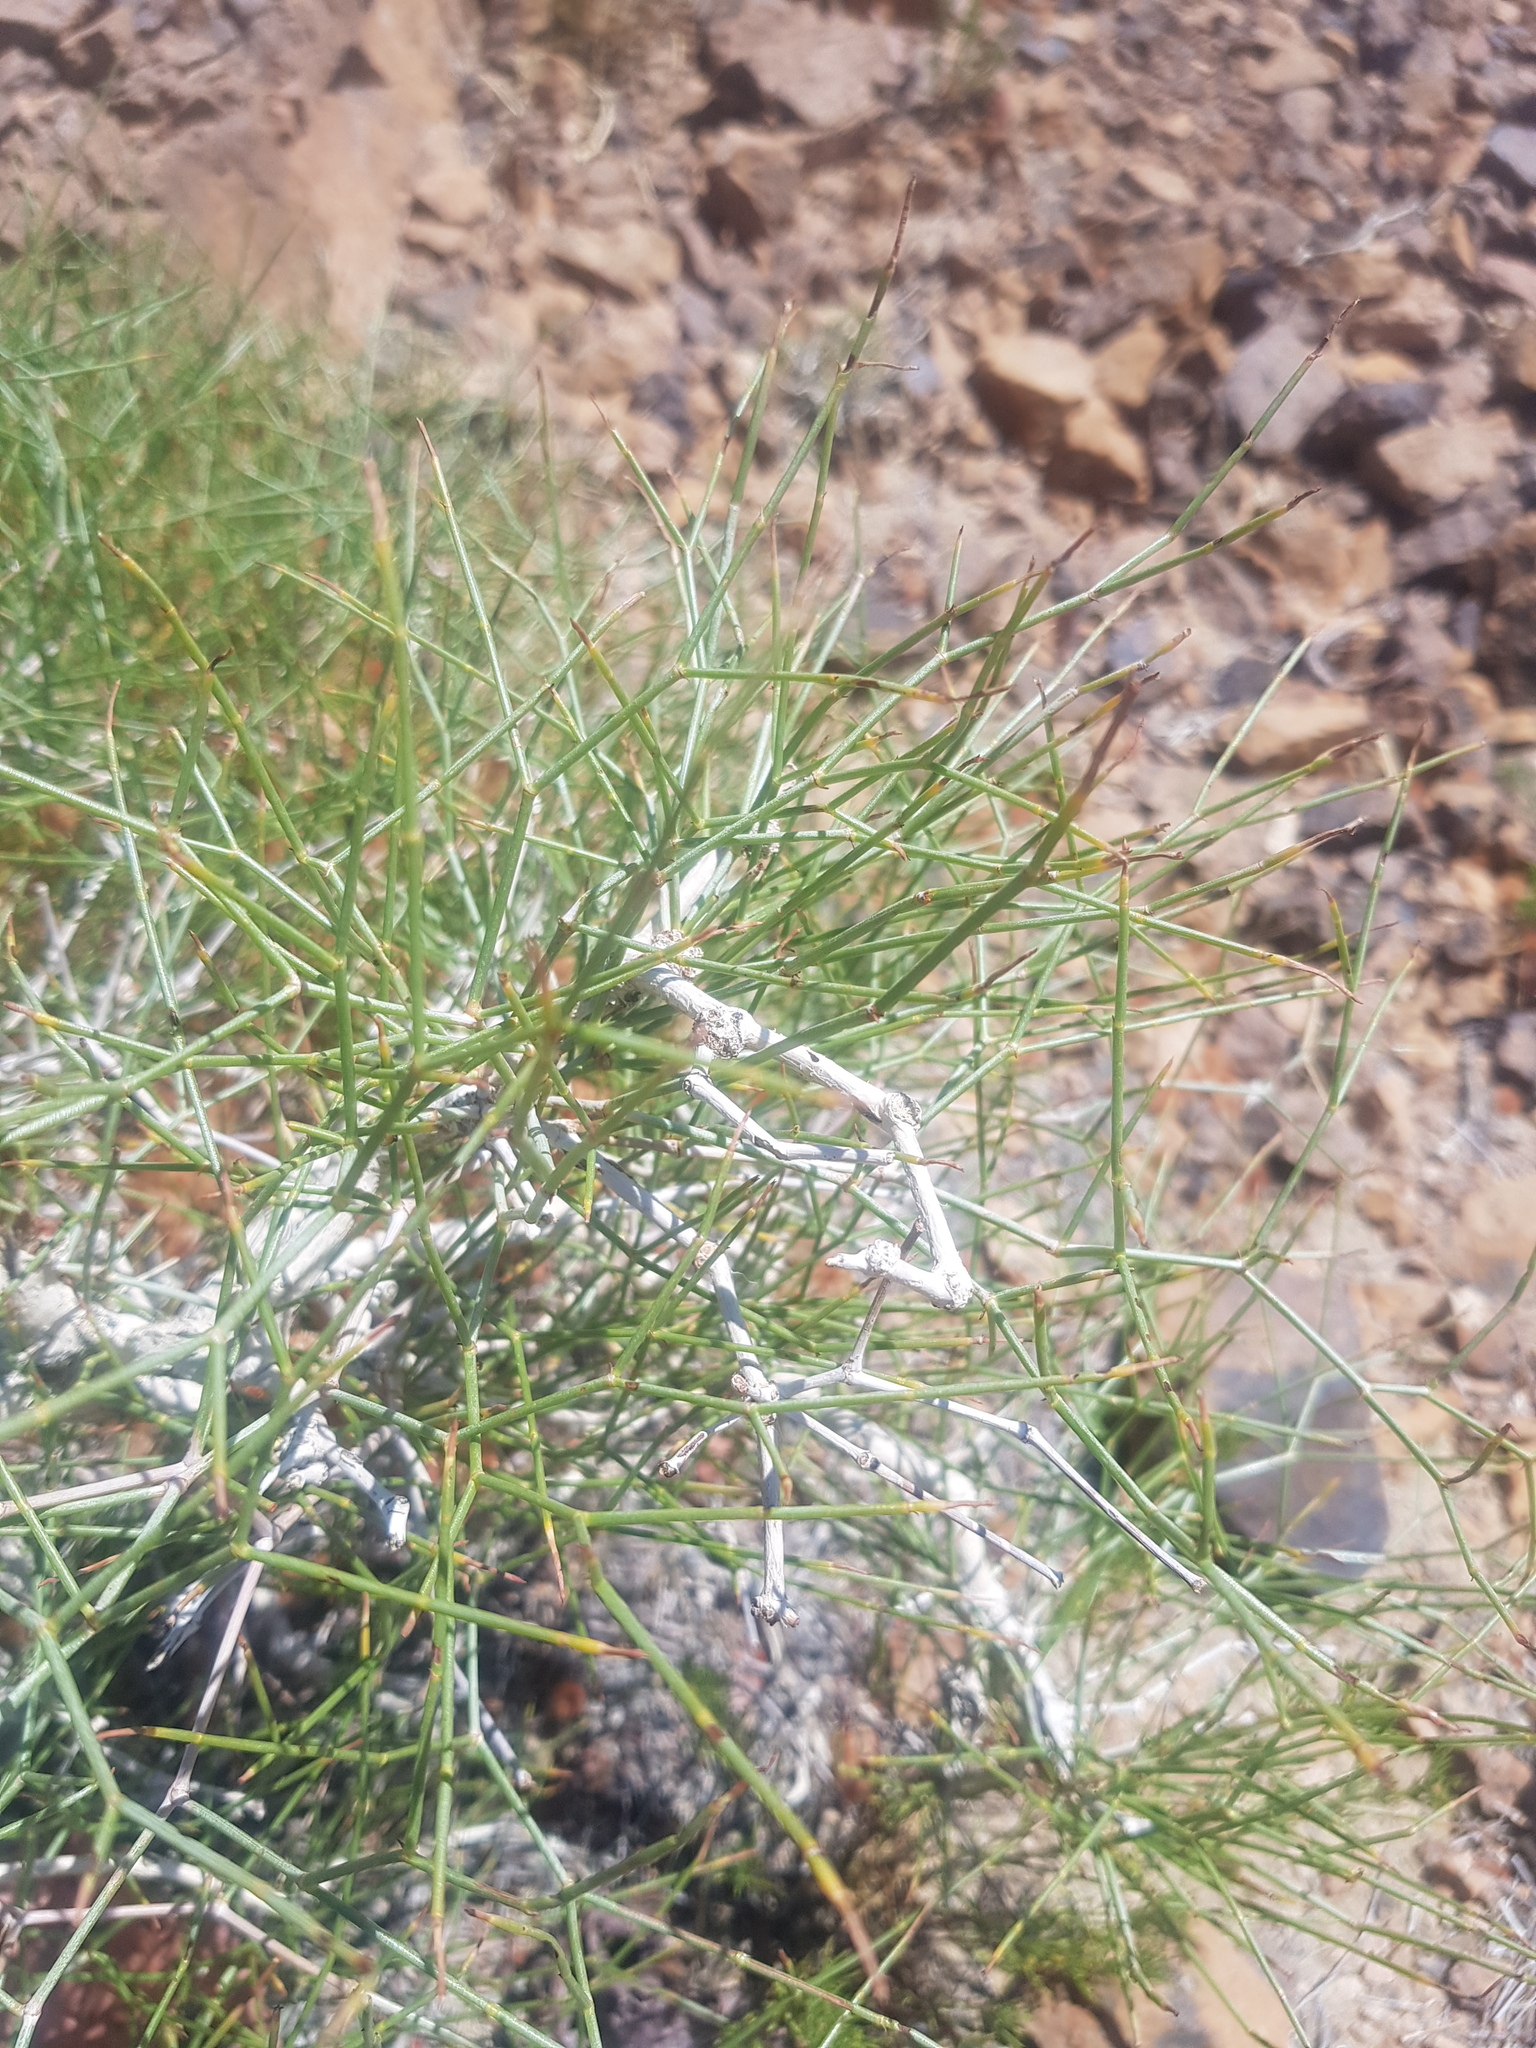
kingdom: Plantae
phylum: Tracheophyta
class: Magnoliopsida
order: Caryophyllales
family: Polygonaceae
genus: Calligonum
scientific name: Calligonum mongolicum
